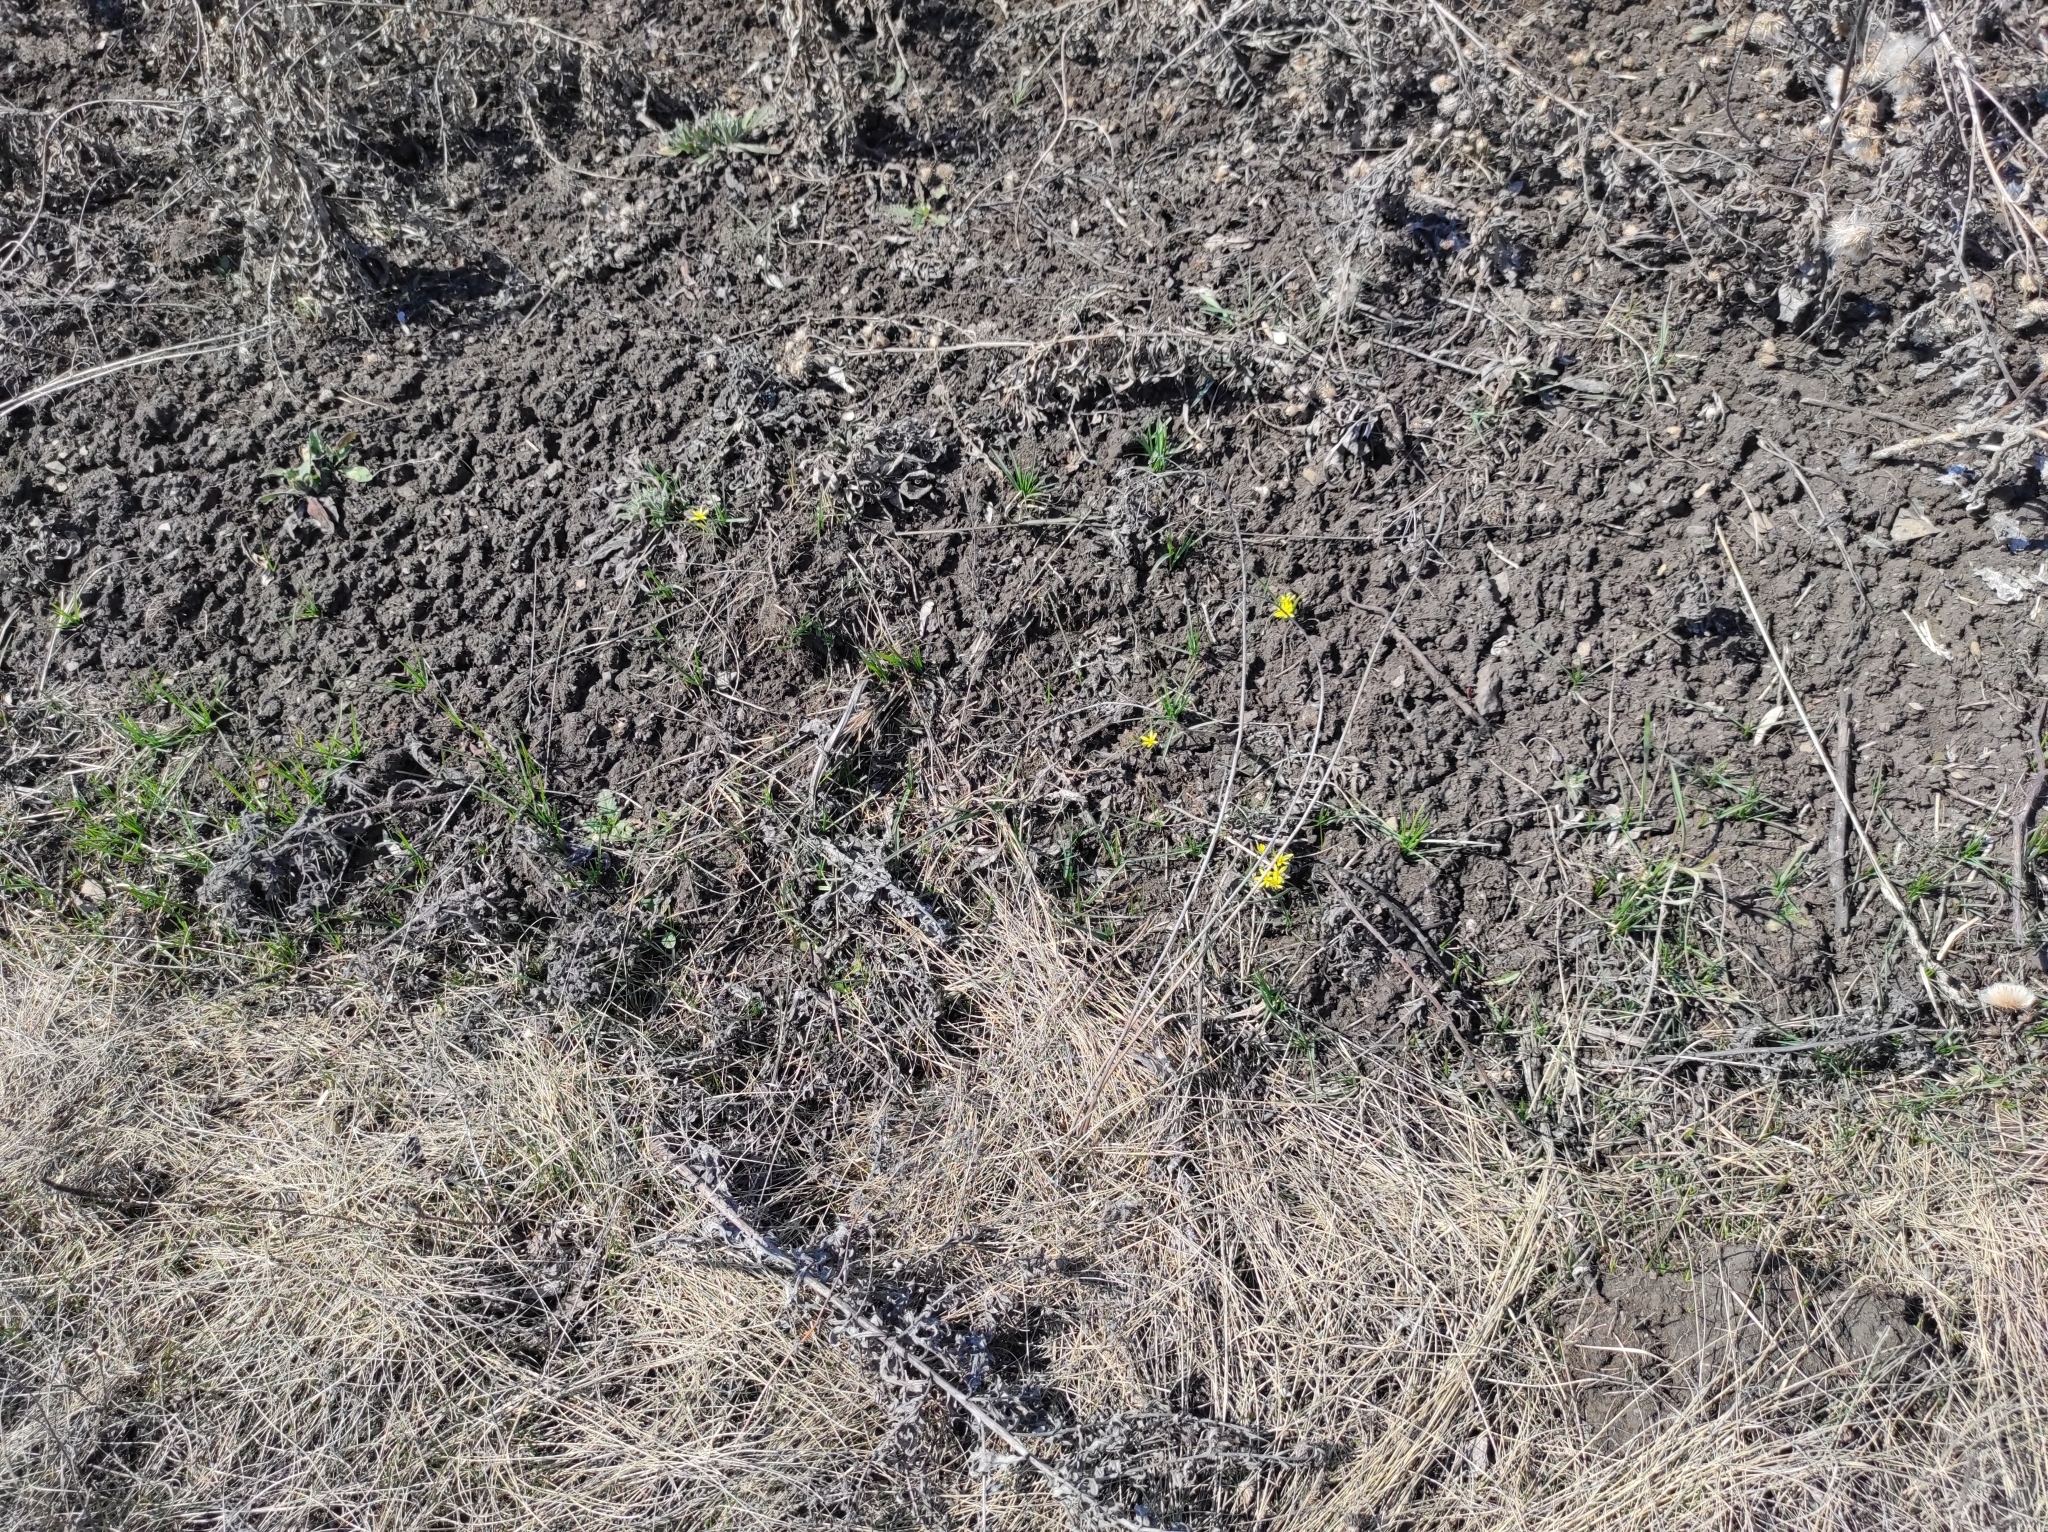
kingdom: Plantae
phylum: Tracheophyta
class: Liliopsida
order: Liliales
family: Liliaceae
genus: Gagea
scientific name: Gagea fedtschenkoana
